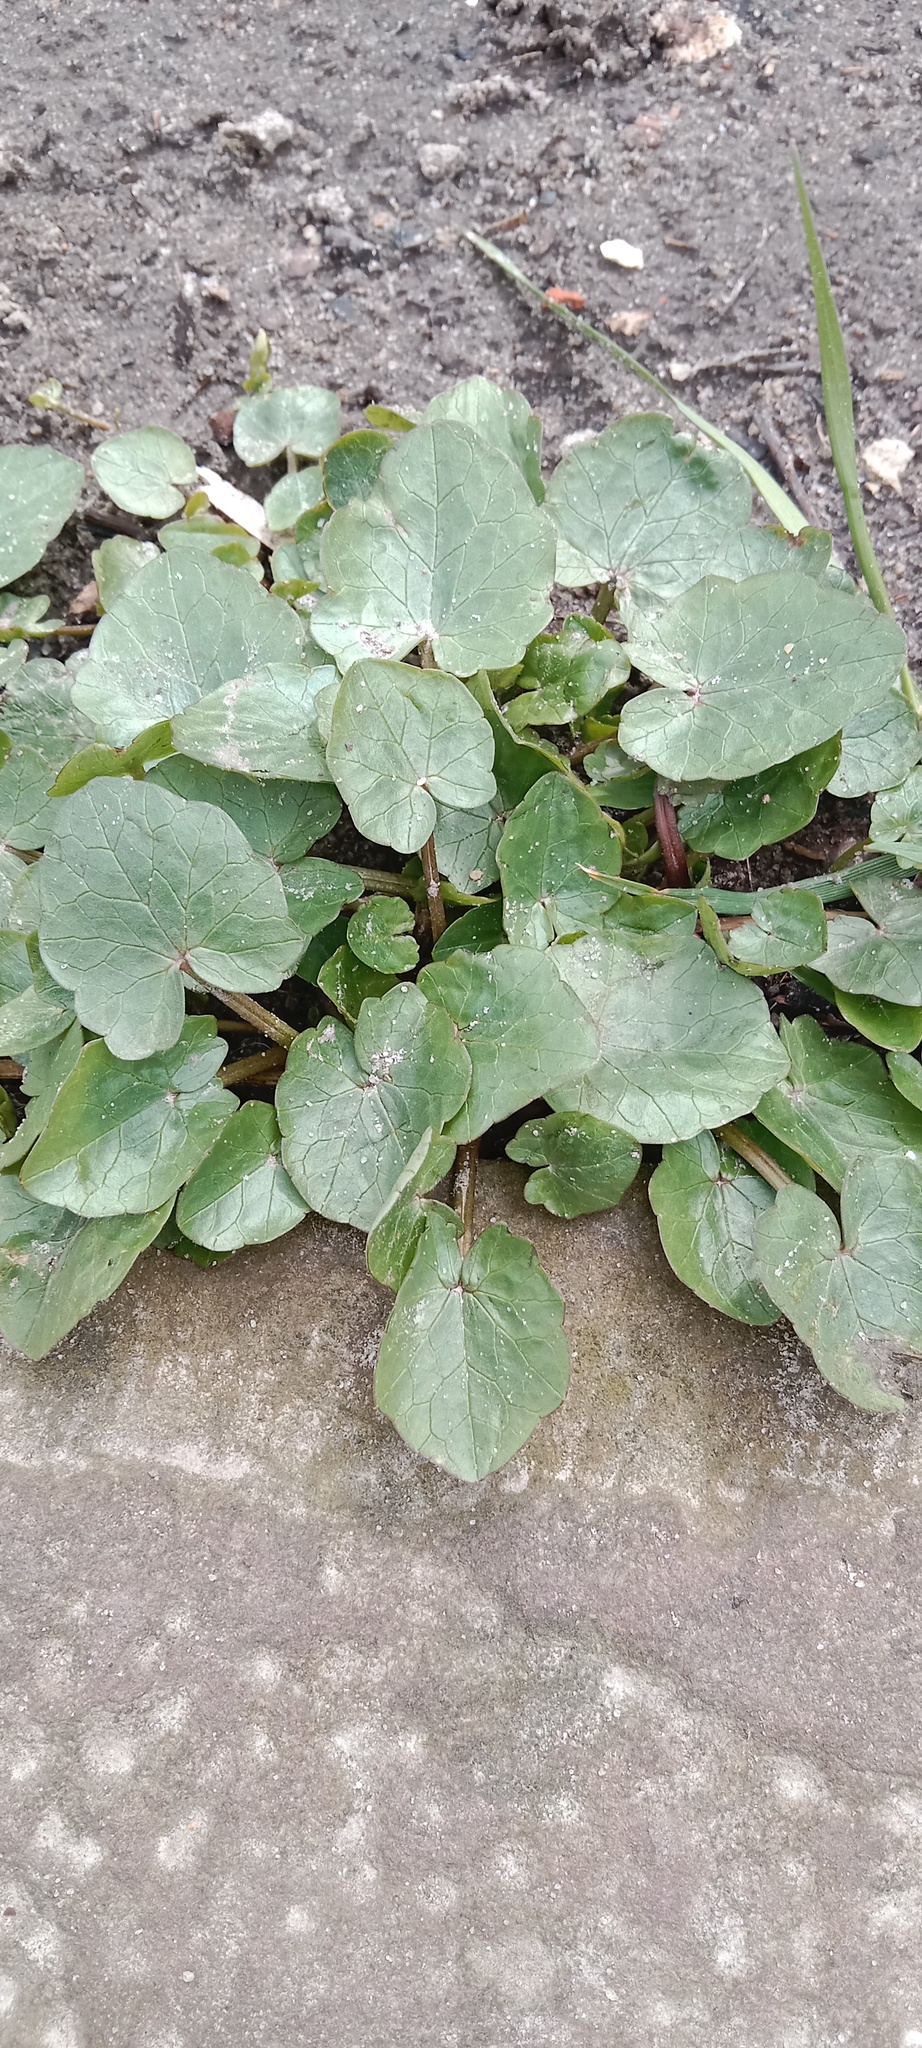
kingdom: Plantae
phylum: Tracheophyta
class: Magnoliopsida
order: Ranunculales
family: Ranunculaceae
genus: Ficaria
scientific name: Ficaria verna
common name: Lesser celandine
